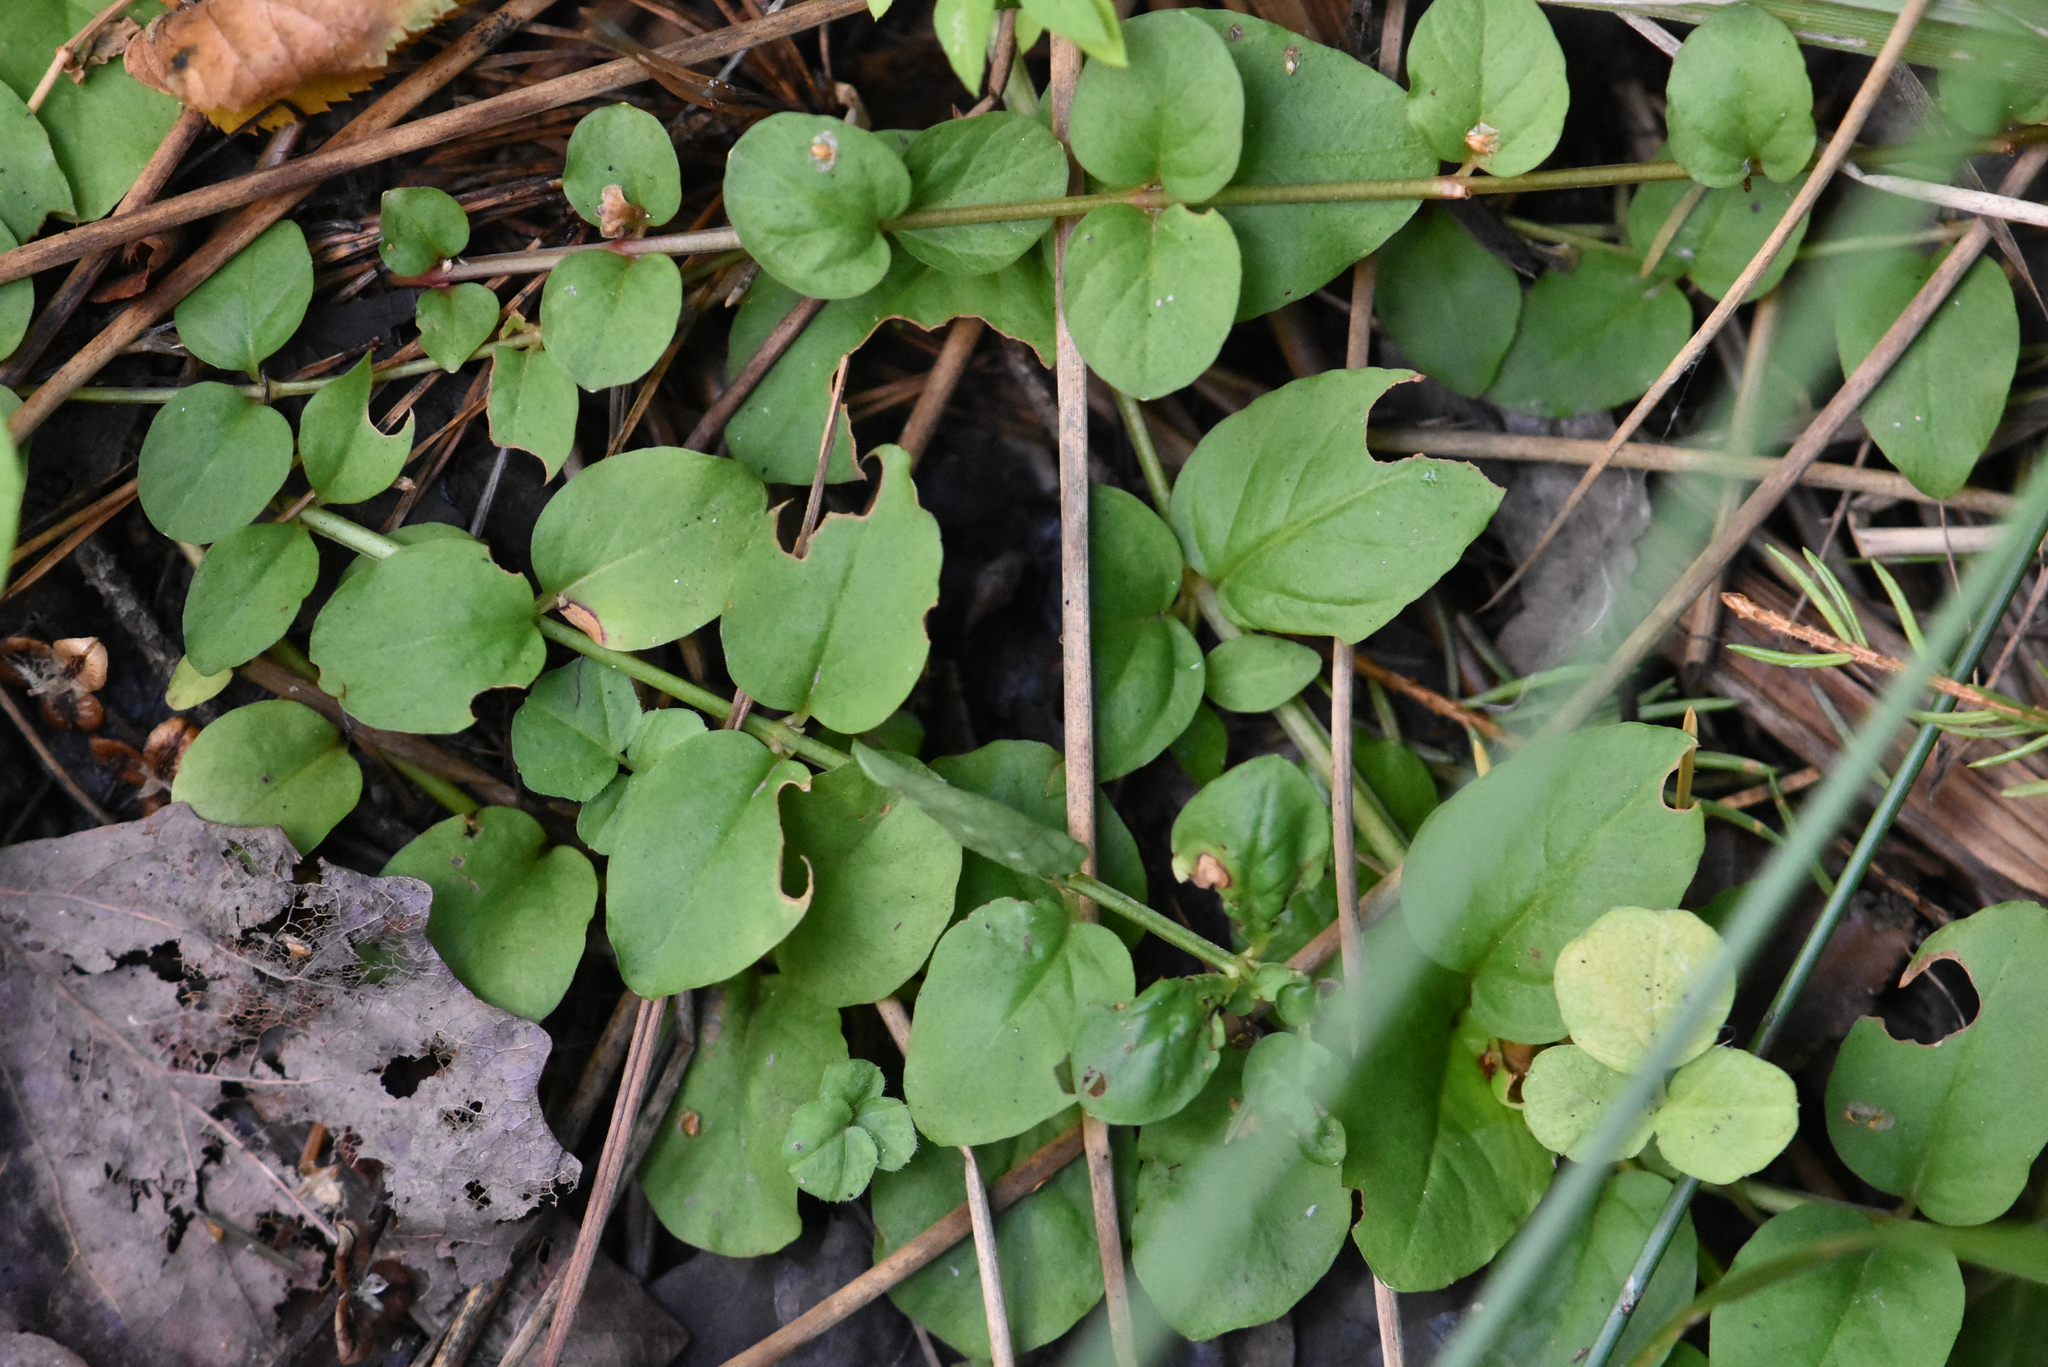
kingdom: Plantae
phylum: Tracheophyta
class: Magnoliopsida
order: Ericales
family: Primulaceae
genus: Lysimachia
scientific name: Lysimachia nummularia
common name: Moneywort
